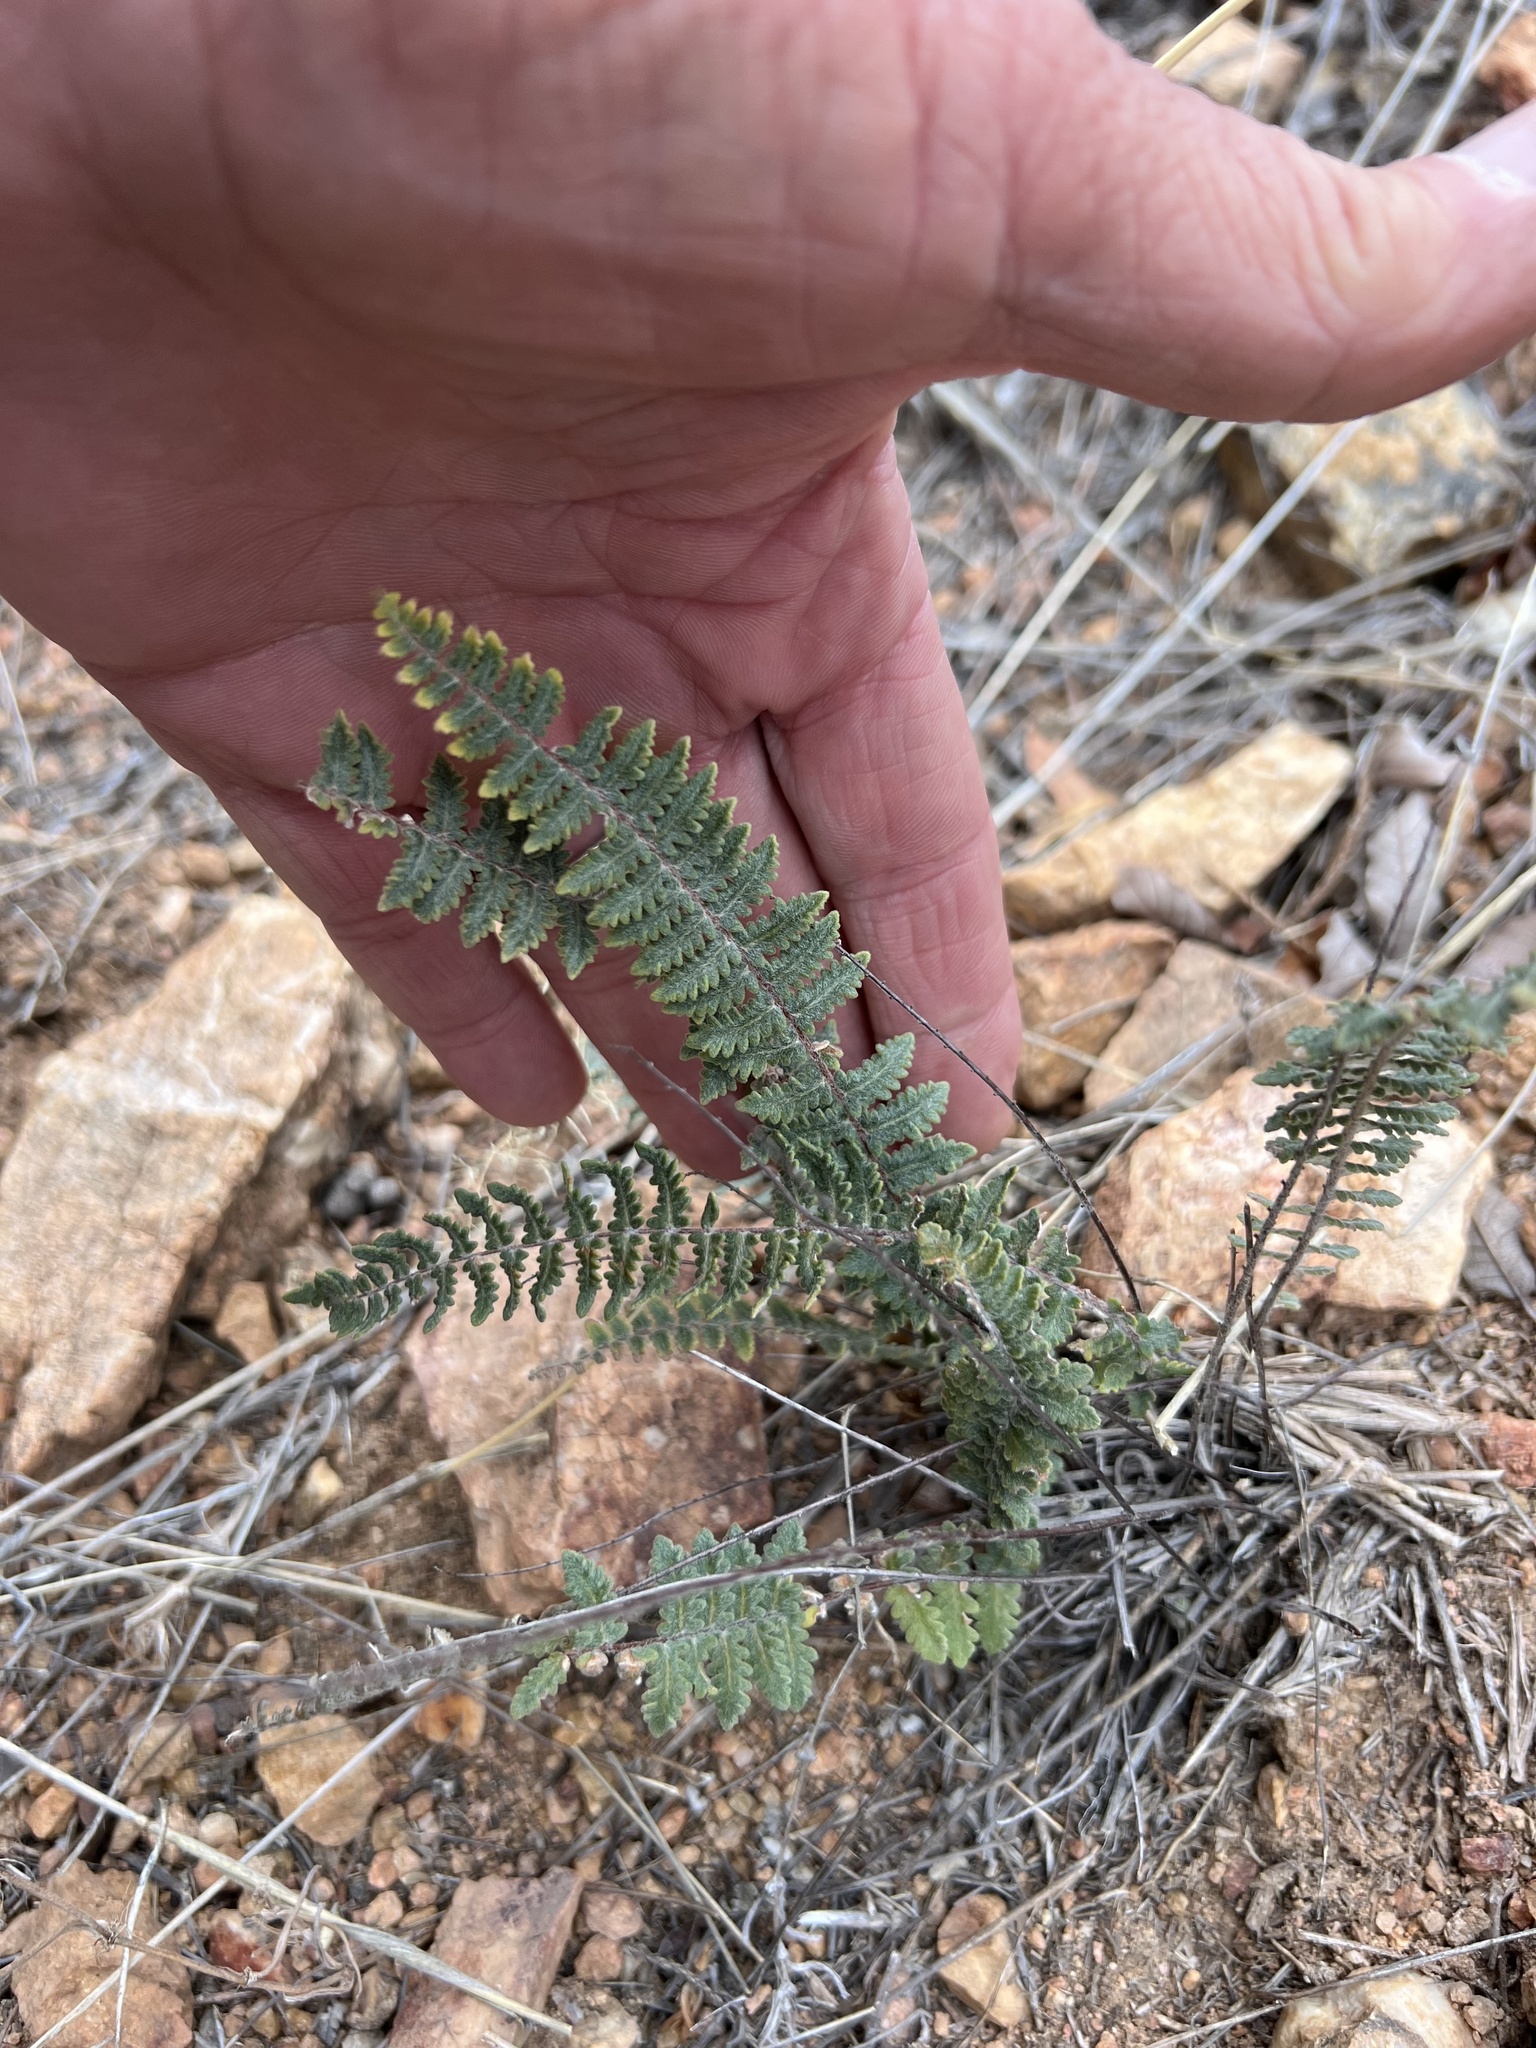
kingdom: Plantae
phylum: Tracheophyta
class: Polypodiopsida
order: Polypodiales
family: Pteridaceae
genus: Myriopteris
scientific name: Myriopteris aurea
